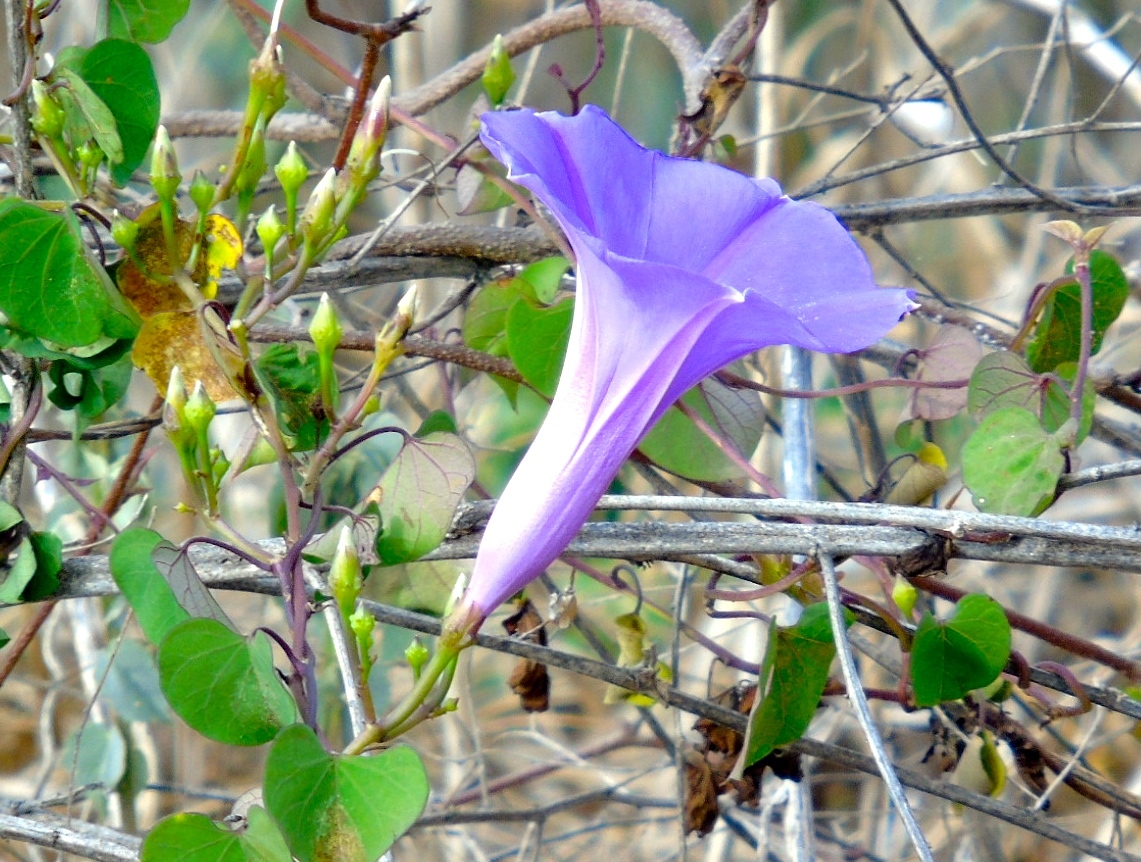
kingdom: Plantae
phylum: Tracheophyta
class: Magnoliopsida
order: Solanales
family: Convolvulaceae
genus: Ipomoea
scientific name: Ipomoea pedicellaris
